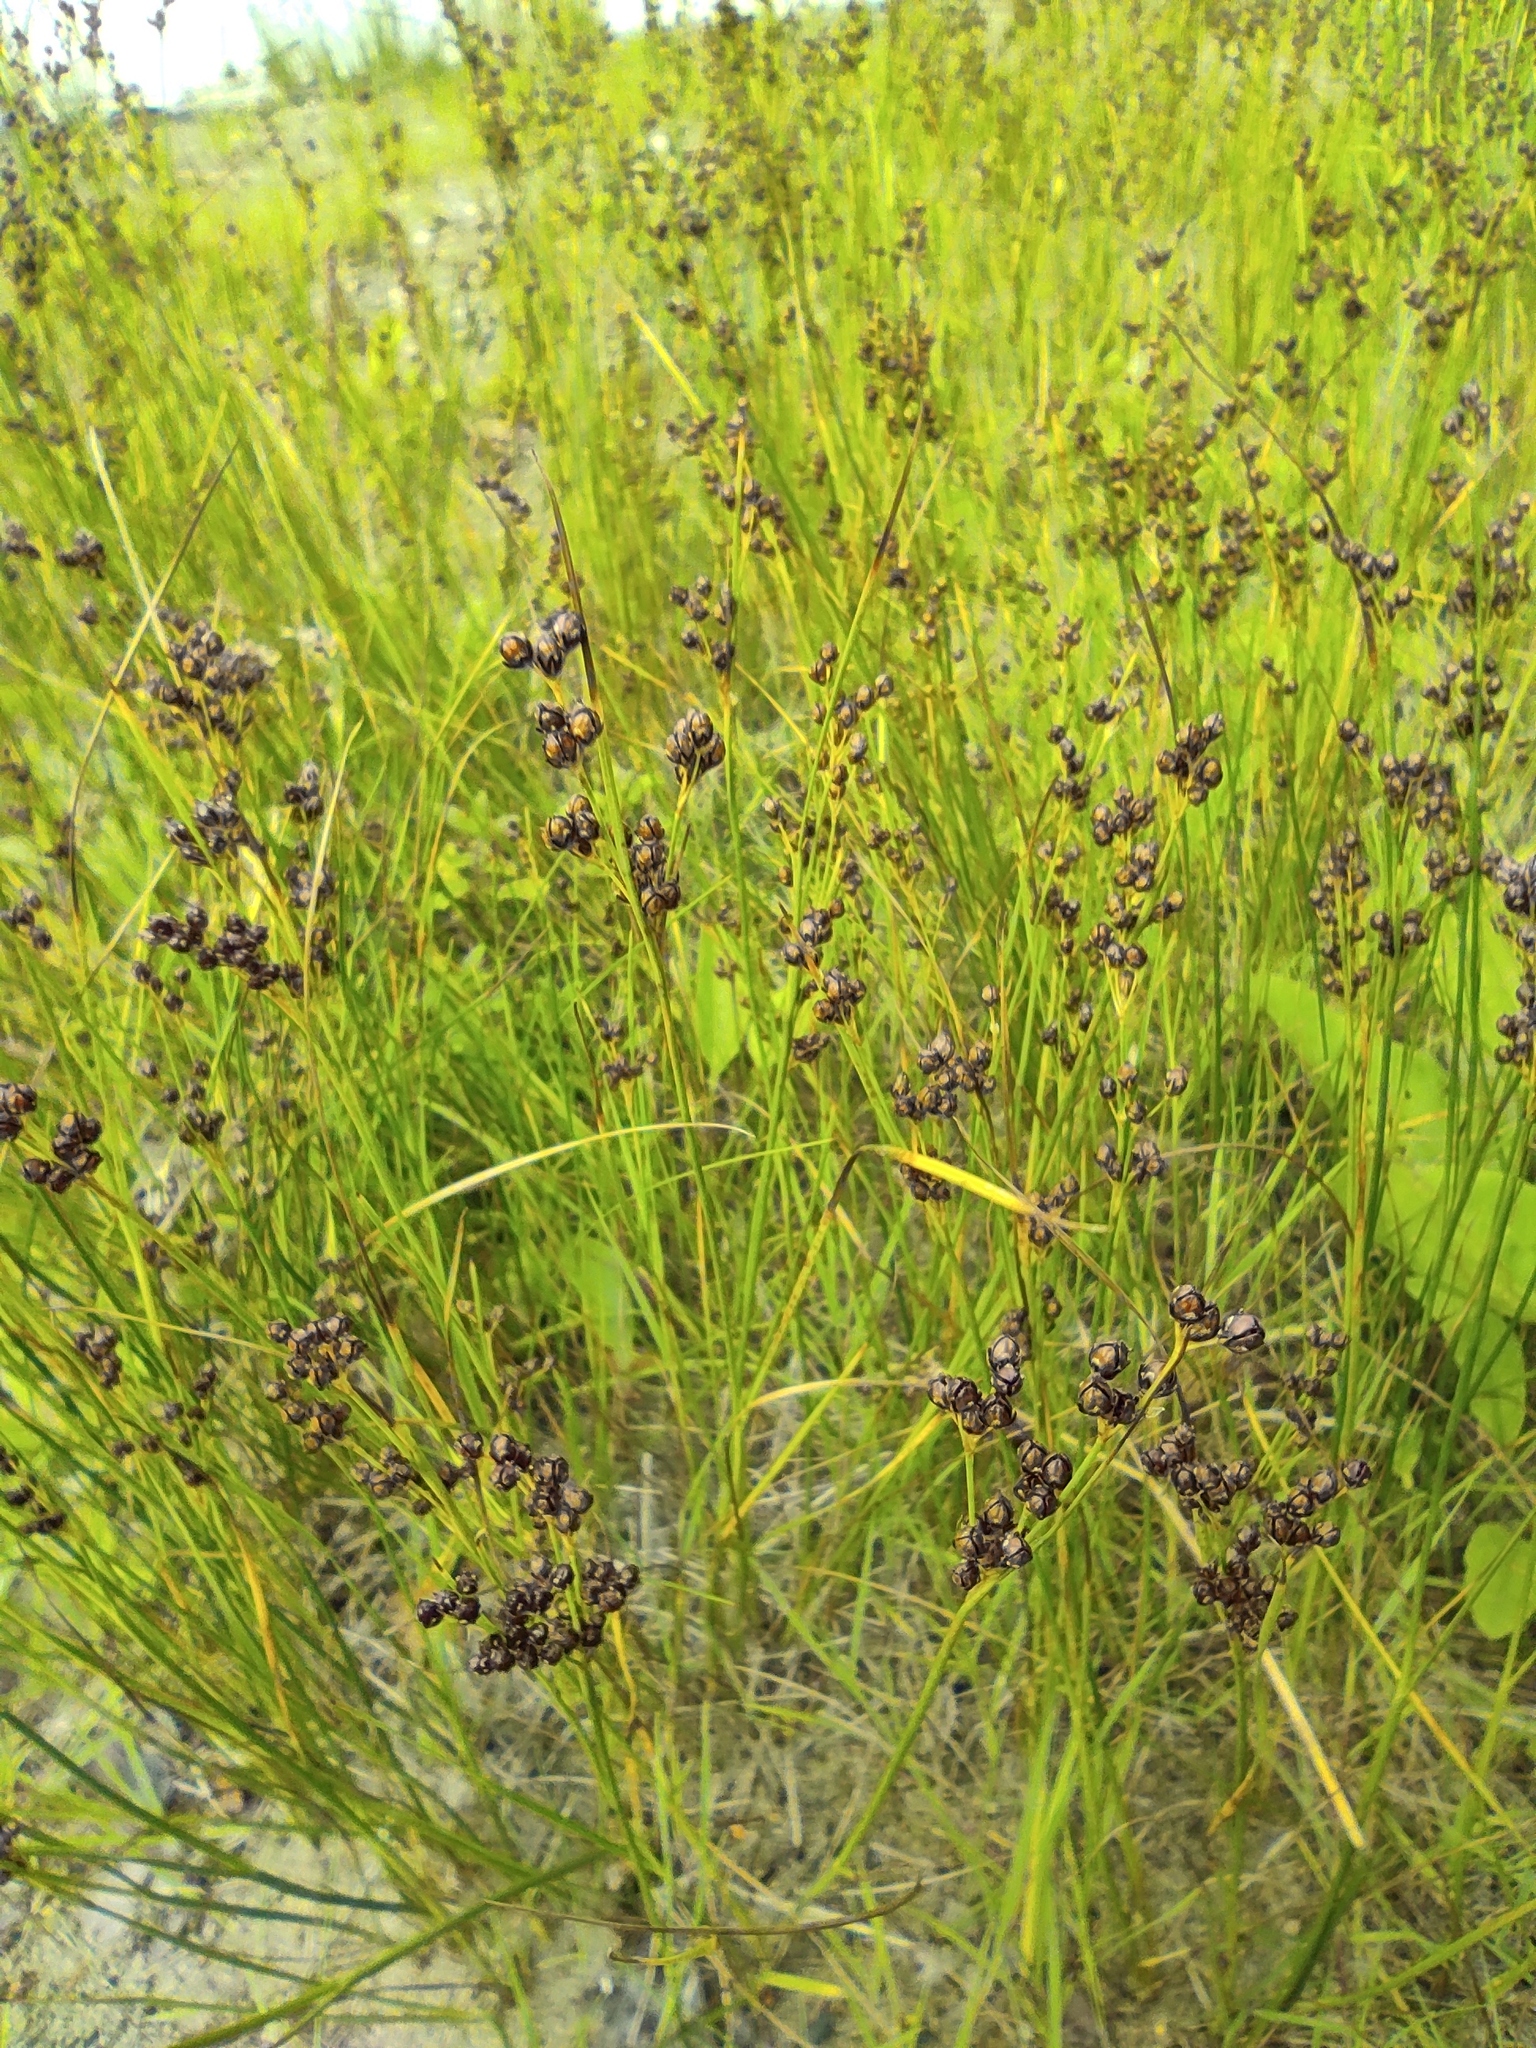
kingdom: Plantae
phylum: Tracheophyta
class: Liliopsida
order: Poales
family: Juncaceae
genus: Juncus
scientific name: Juncus compressus
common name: Round-fruited rush
